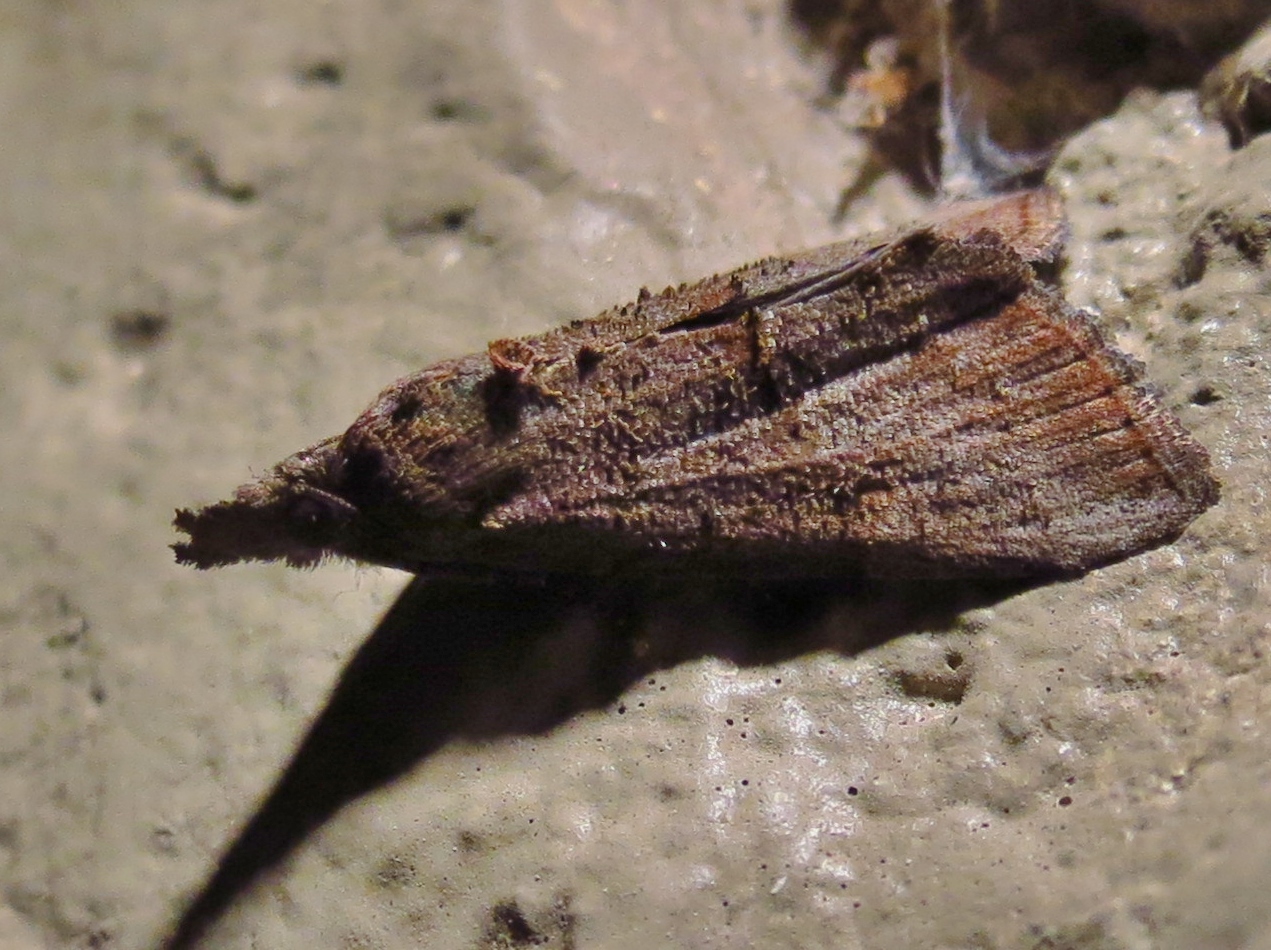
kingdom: Animalia
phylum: Arthropoda
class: Insecta
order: Lepidoptera
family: Erebidae
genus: Hypena
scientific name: Hypena scabra
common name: Green cloverworm
